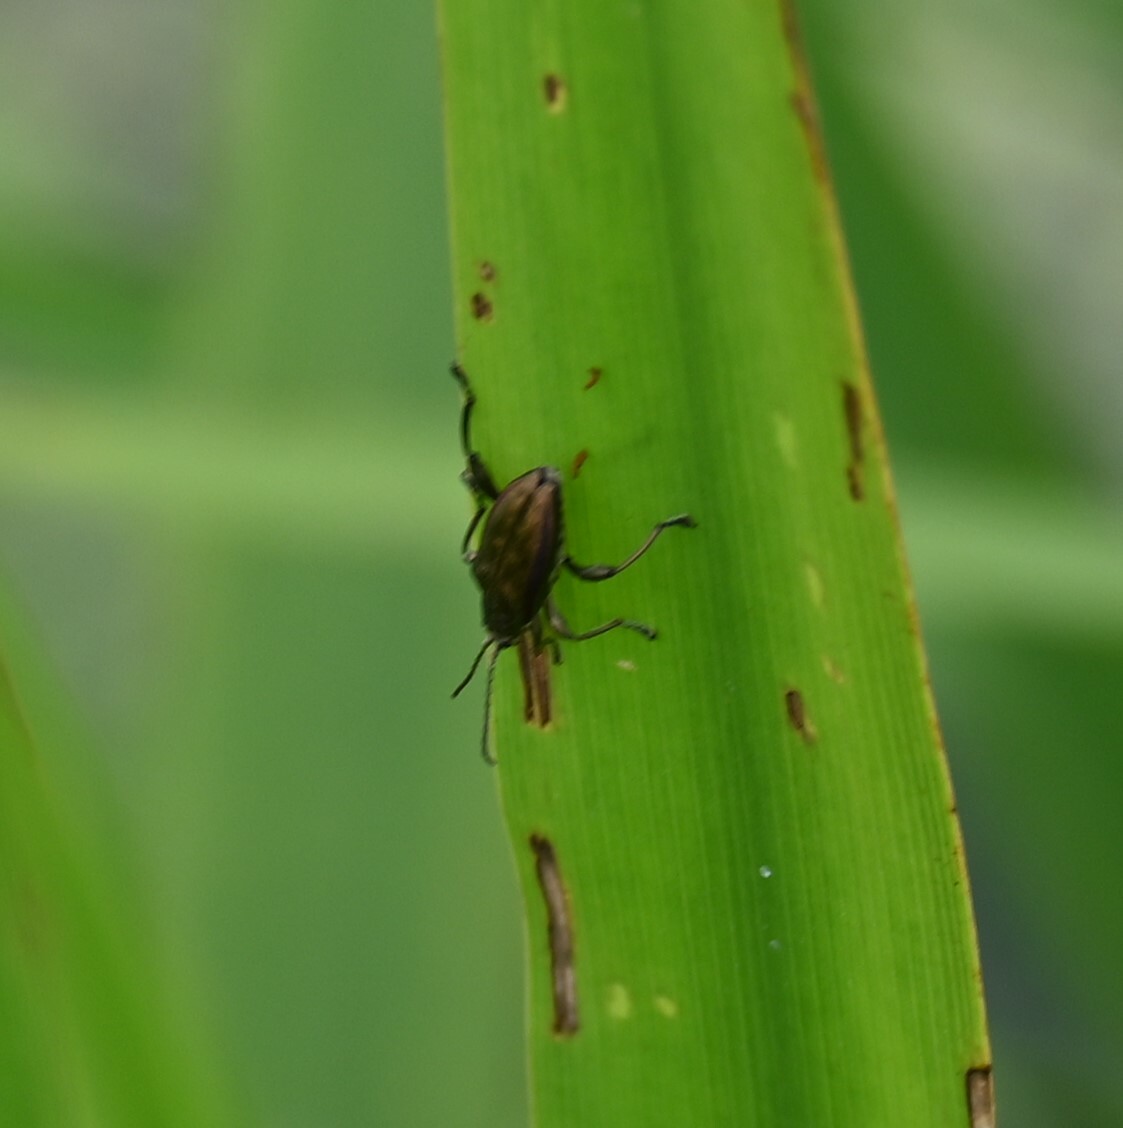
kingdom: Animalia
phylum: Arthropoda
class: Insecta
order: Coleoptera
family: Chrysomelidae
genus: Donacia
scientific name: Donacia marginata
